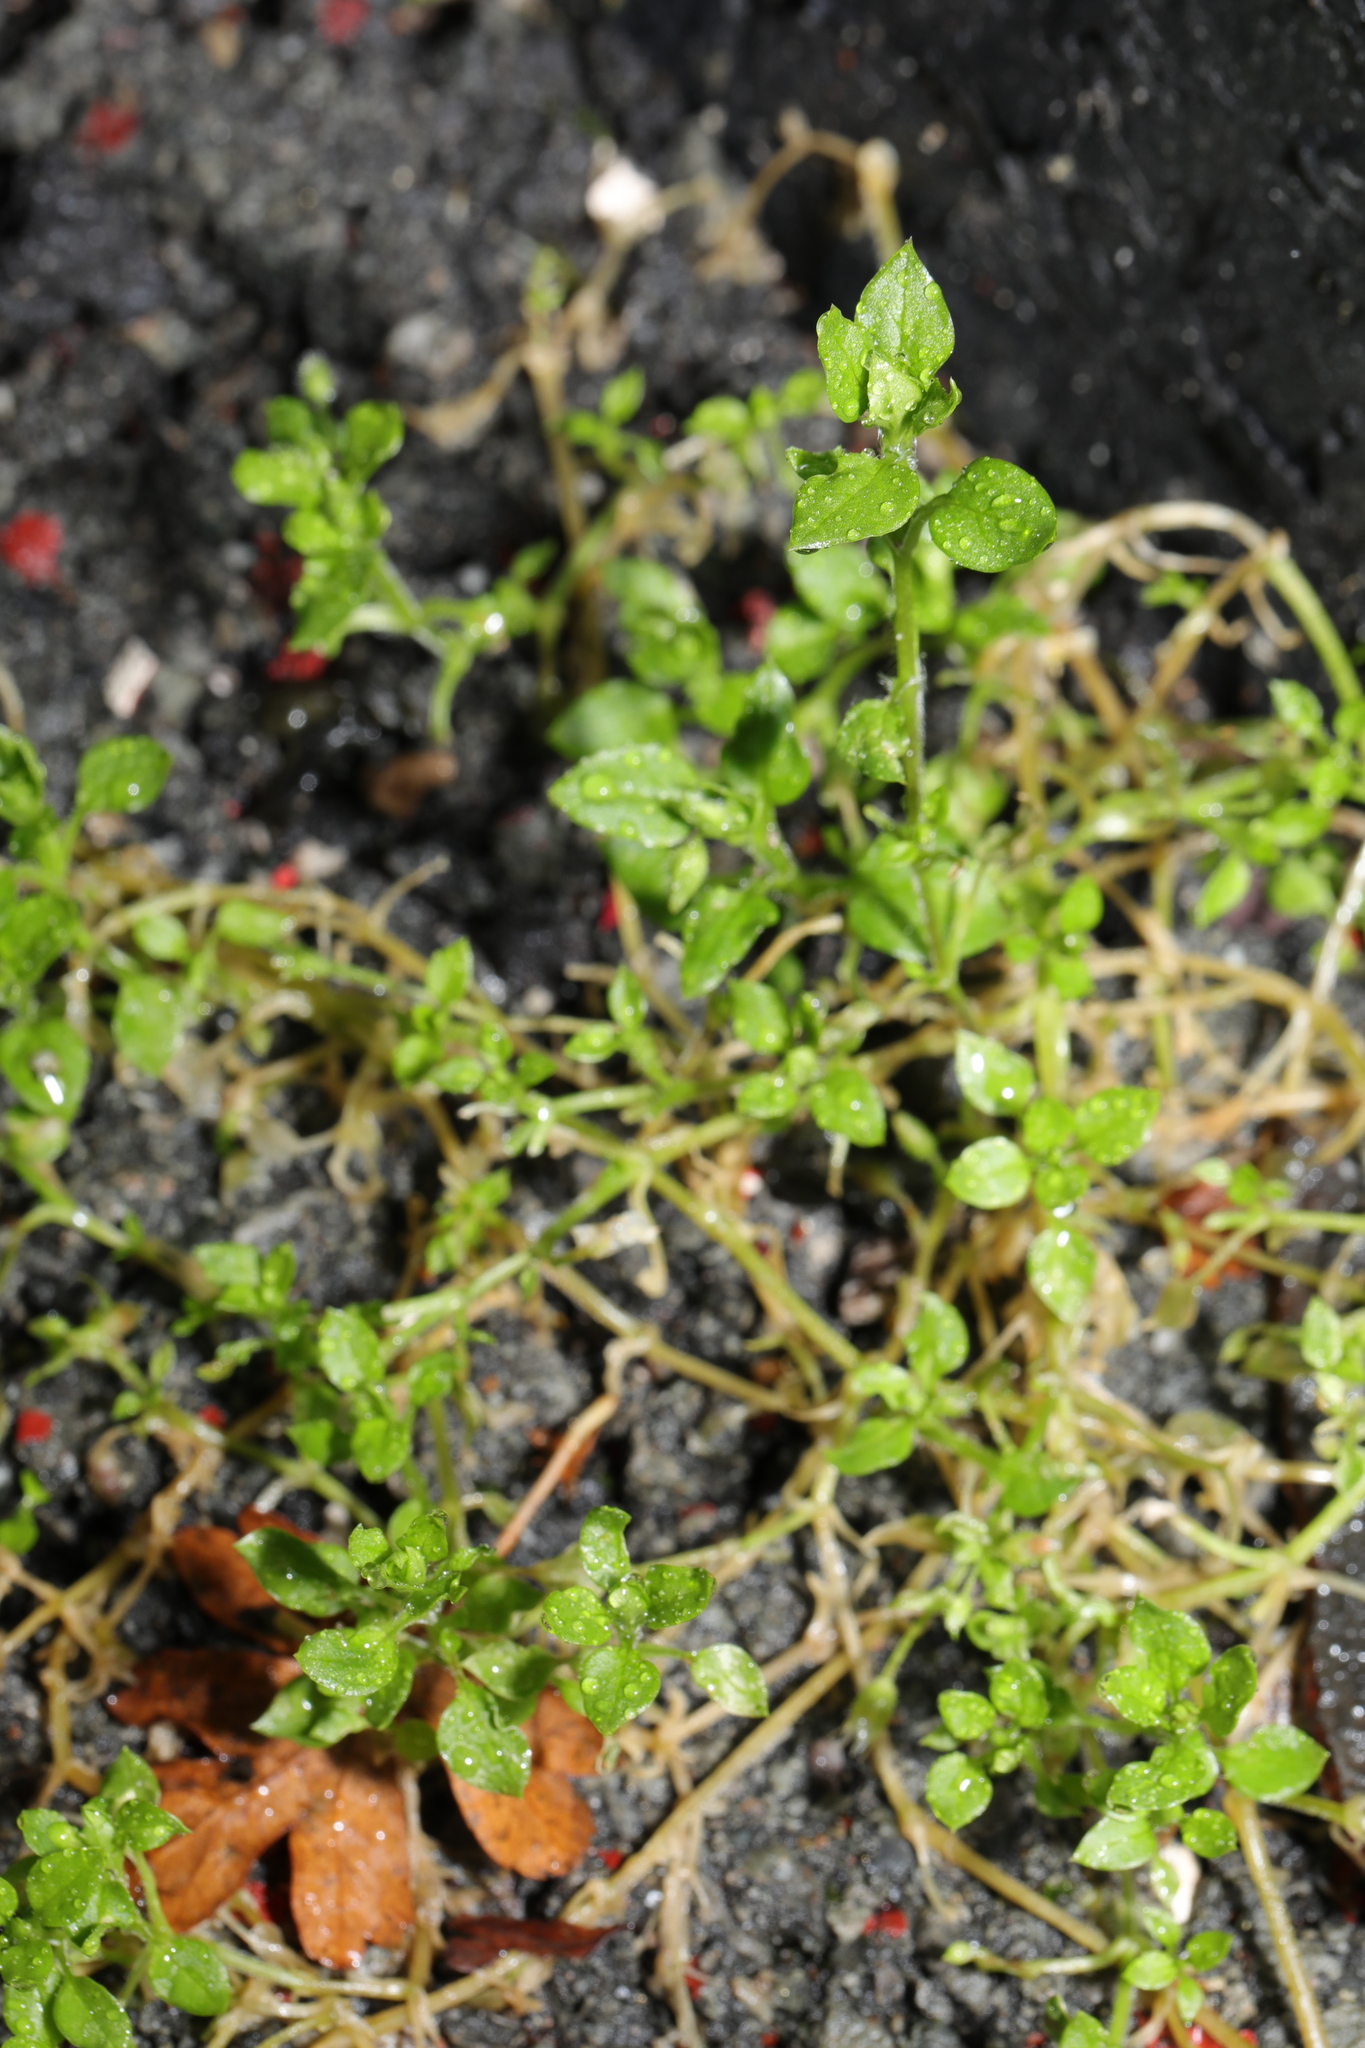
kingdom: Plantae
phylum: Tracheophyta
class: Magnoliopsida
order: Caryophyllales
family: Caryophyllaceae
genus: Stellaria
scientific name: Stellaria media
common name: Common chickweed
